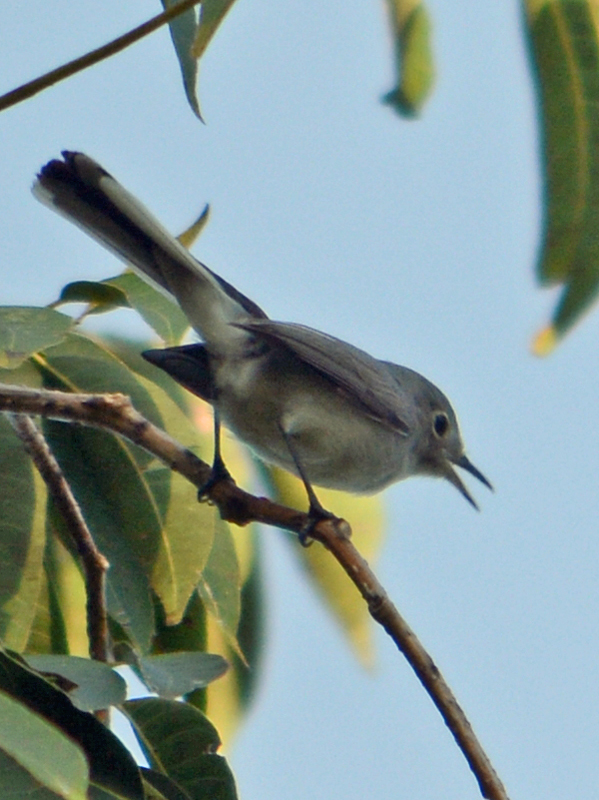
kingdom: Animalia
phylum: Chordata
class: Aves
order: Passeriformes
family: Polioptilidae
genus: Polioptila
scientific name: Polioptila caerulea
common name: Blue-gray gnatcatcher
